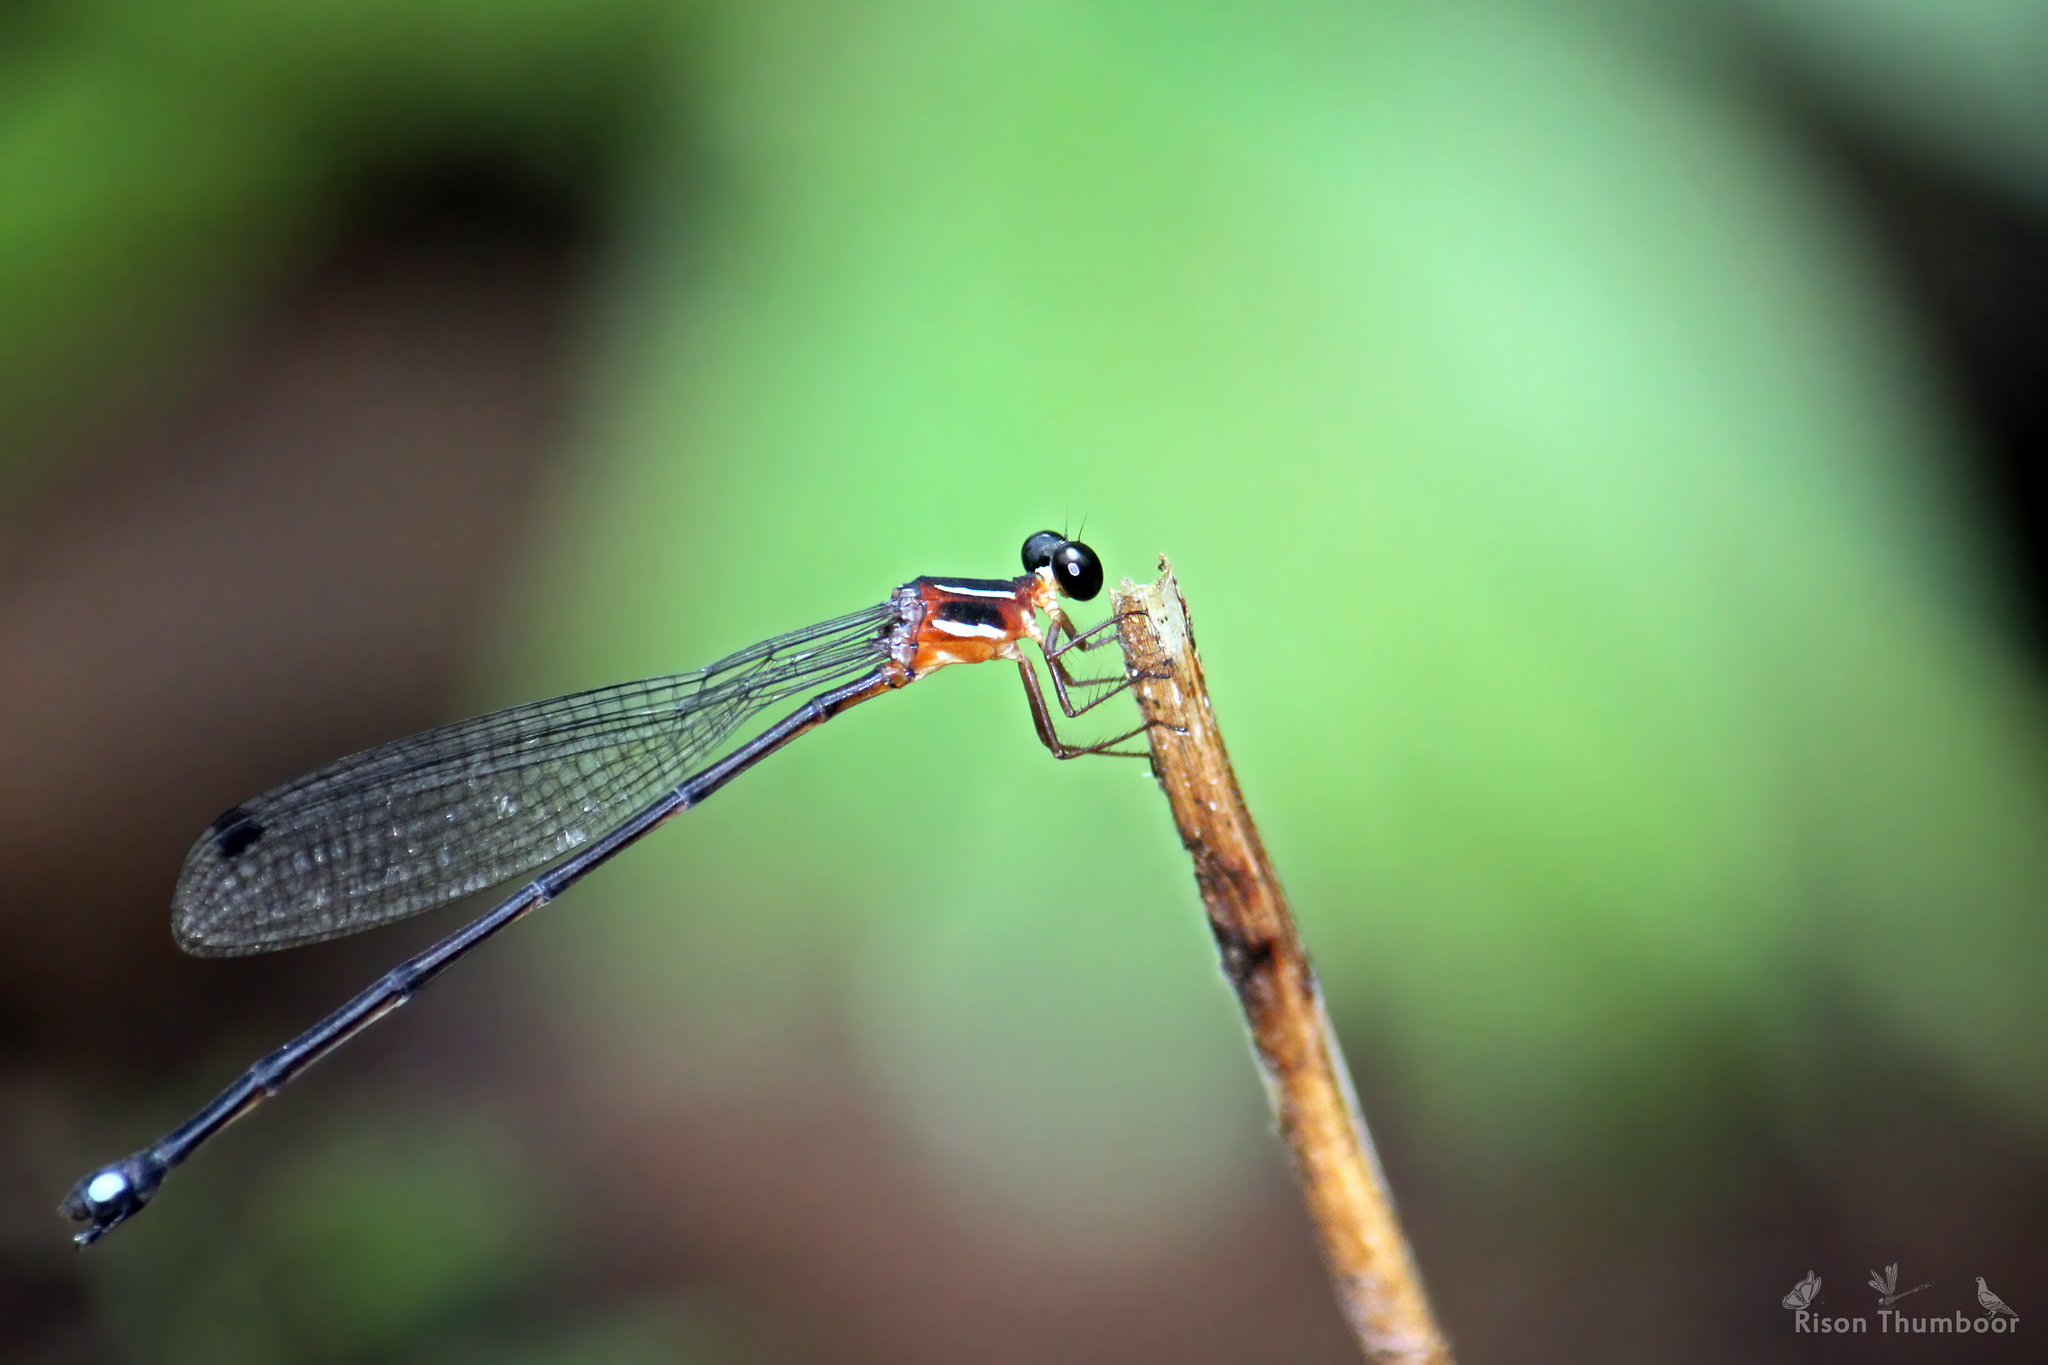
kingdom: Animalia
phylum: Arthropoda
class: Insecta
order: Odonata
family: Platystictidae
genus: Indosticta
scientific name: Indosticta deccanensis
